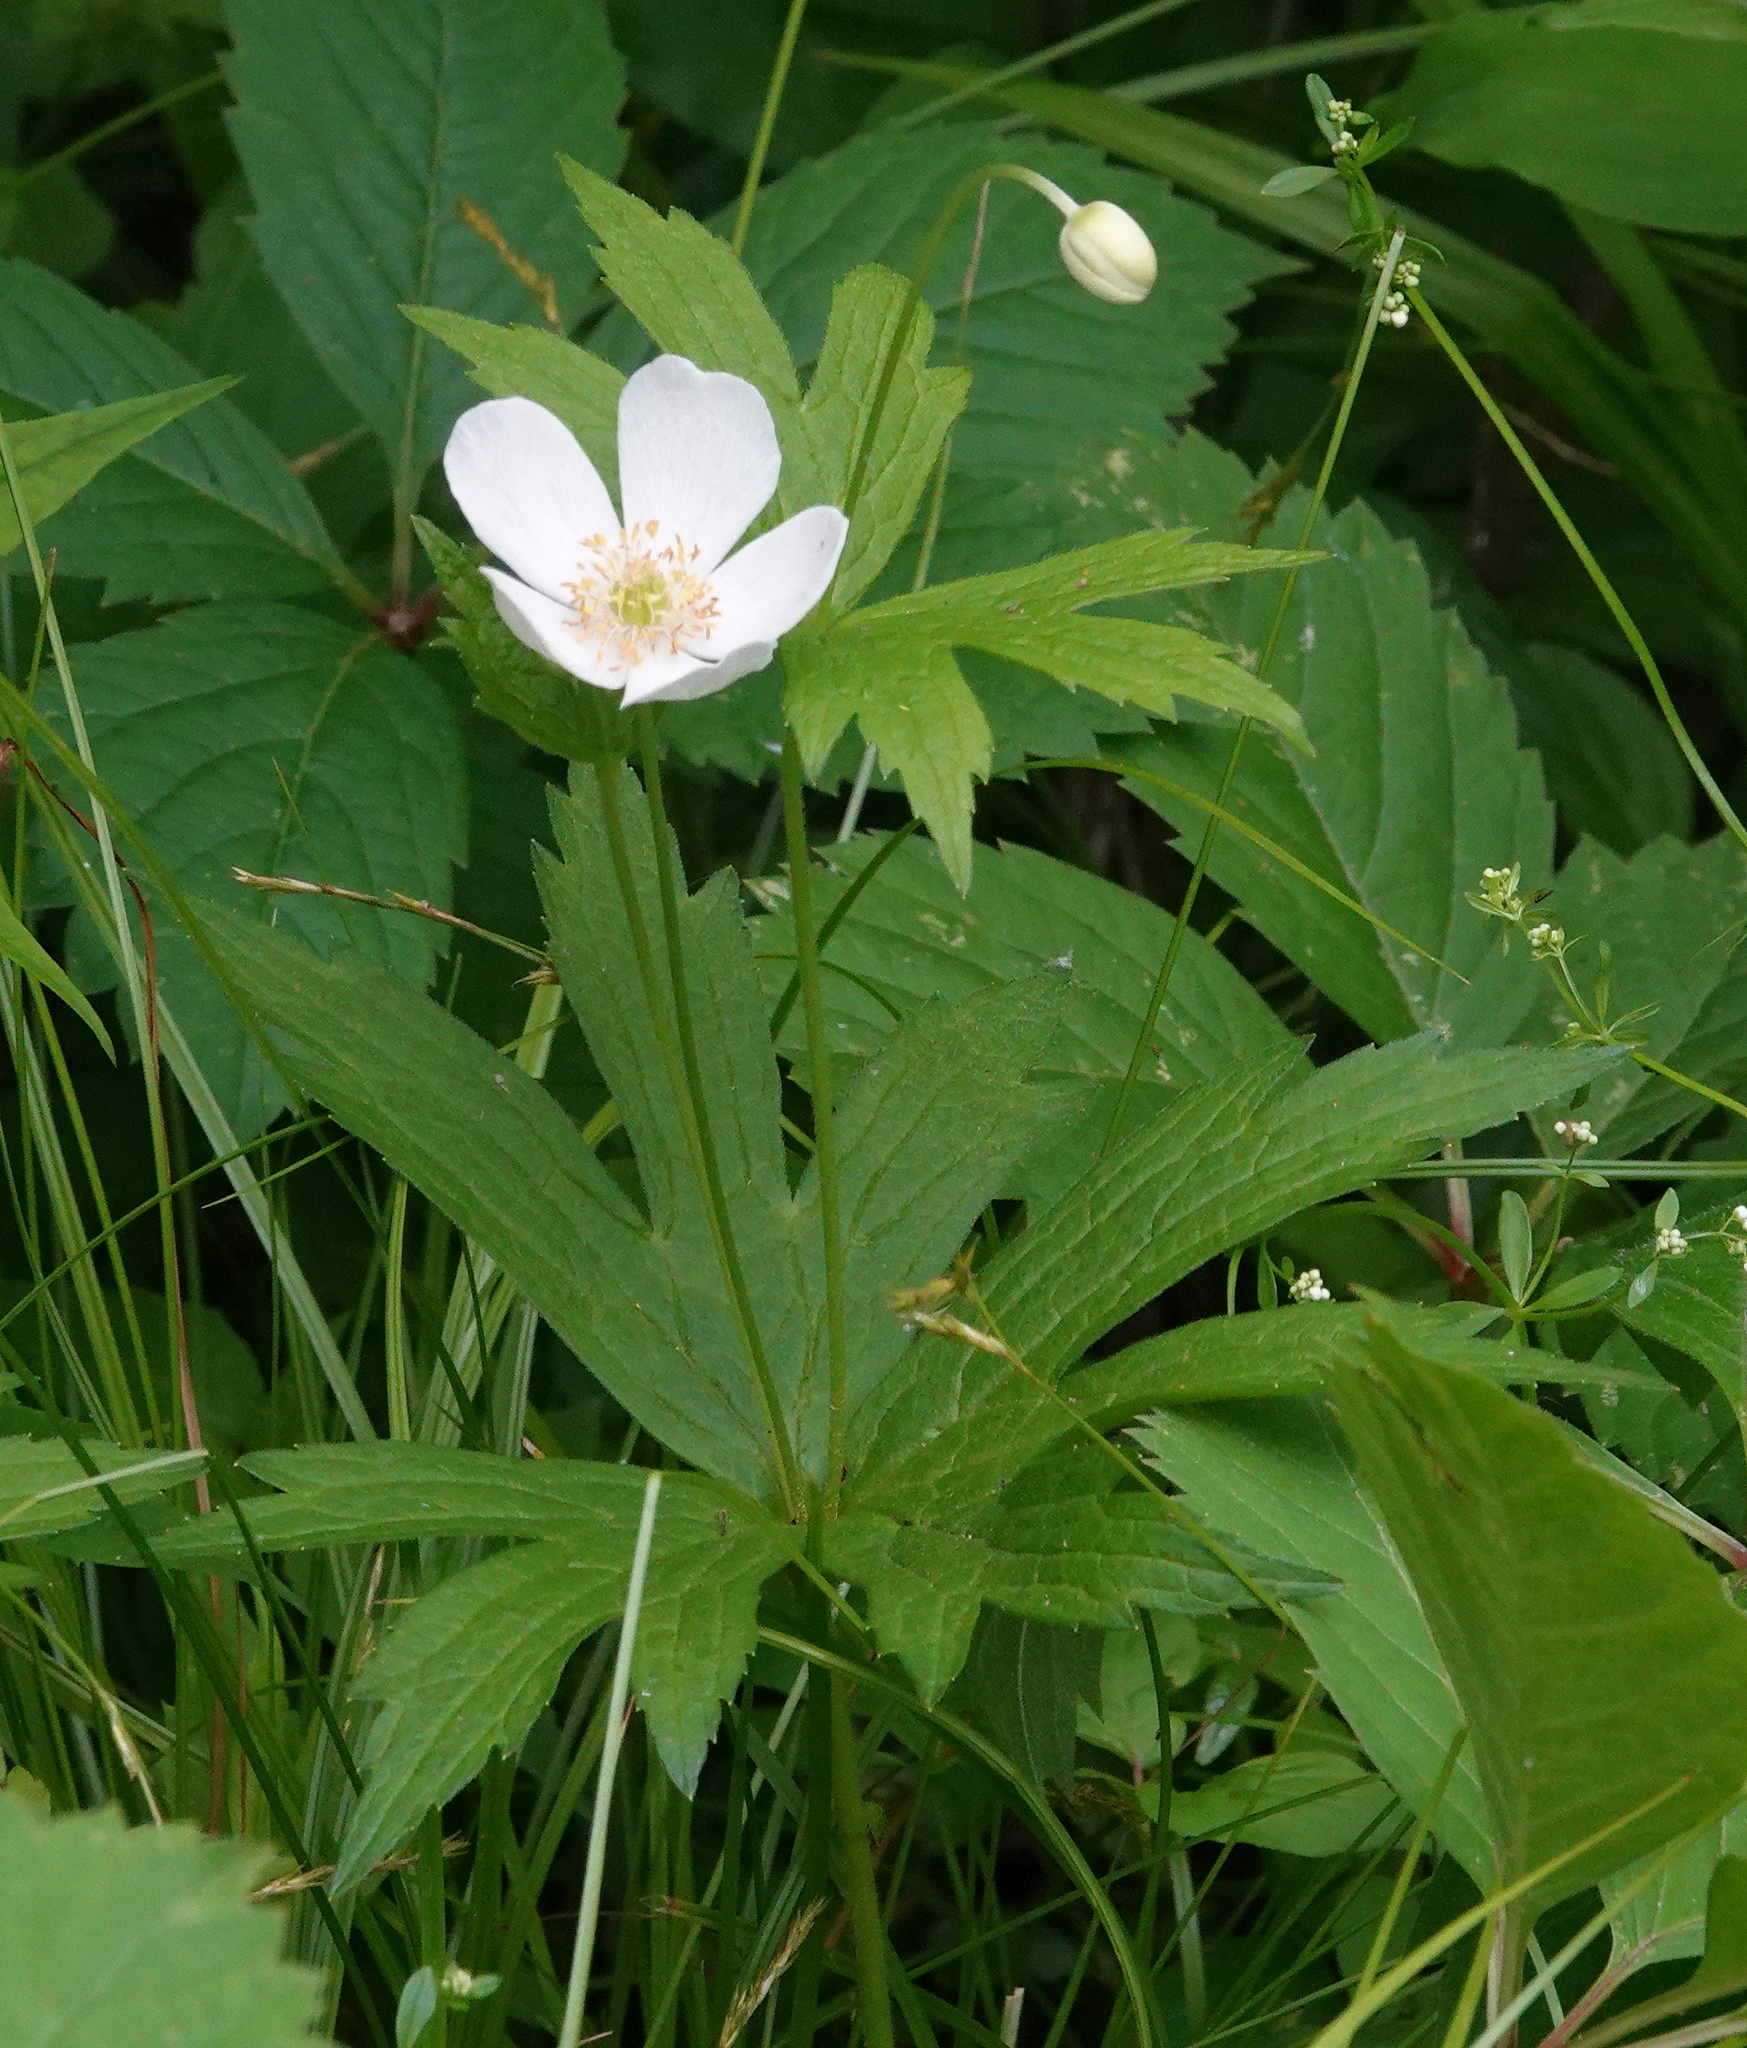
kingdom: Plantae
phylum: Tracheophyta
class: Magnoliopsida
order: Ranunculales
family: Ranunculaceae
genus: Anemonastrum
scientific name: Anemonastrum canadense
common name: Canada anemone
